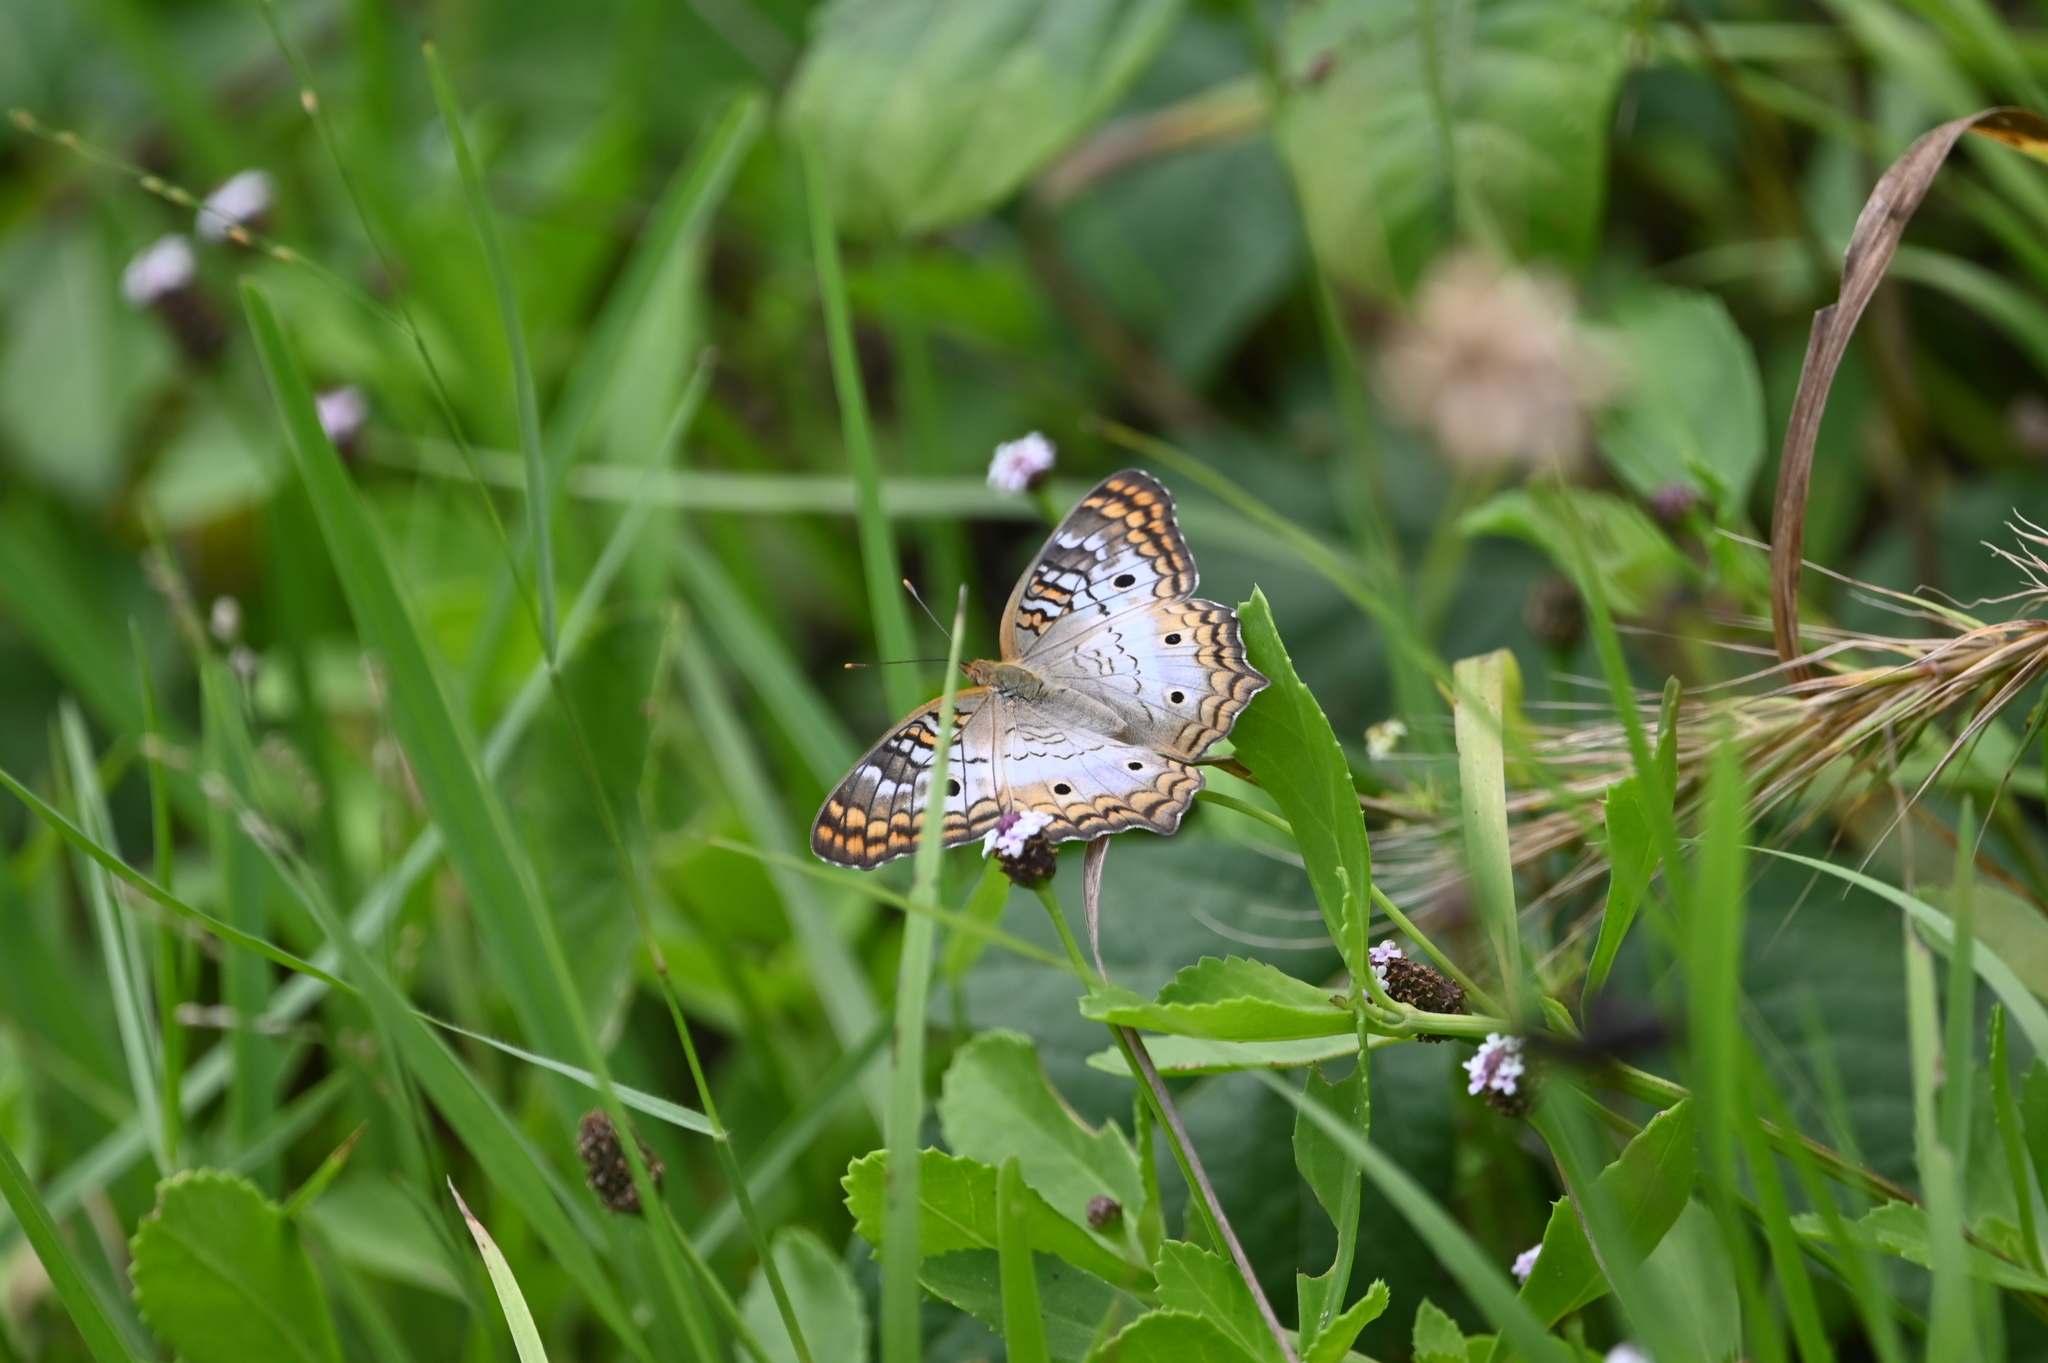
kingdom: Animalia
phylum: Arthropoda
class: Insecta
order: Lepidoptera
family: Nymphalidae
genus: Anartia
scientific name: Anartia jatrophae
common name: White peacock
